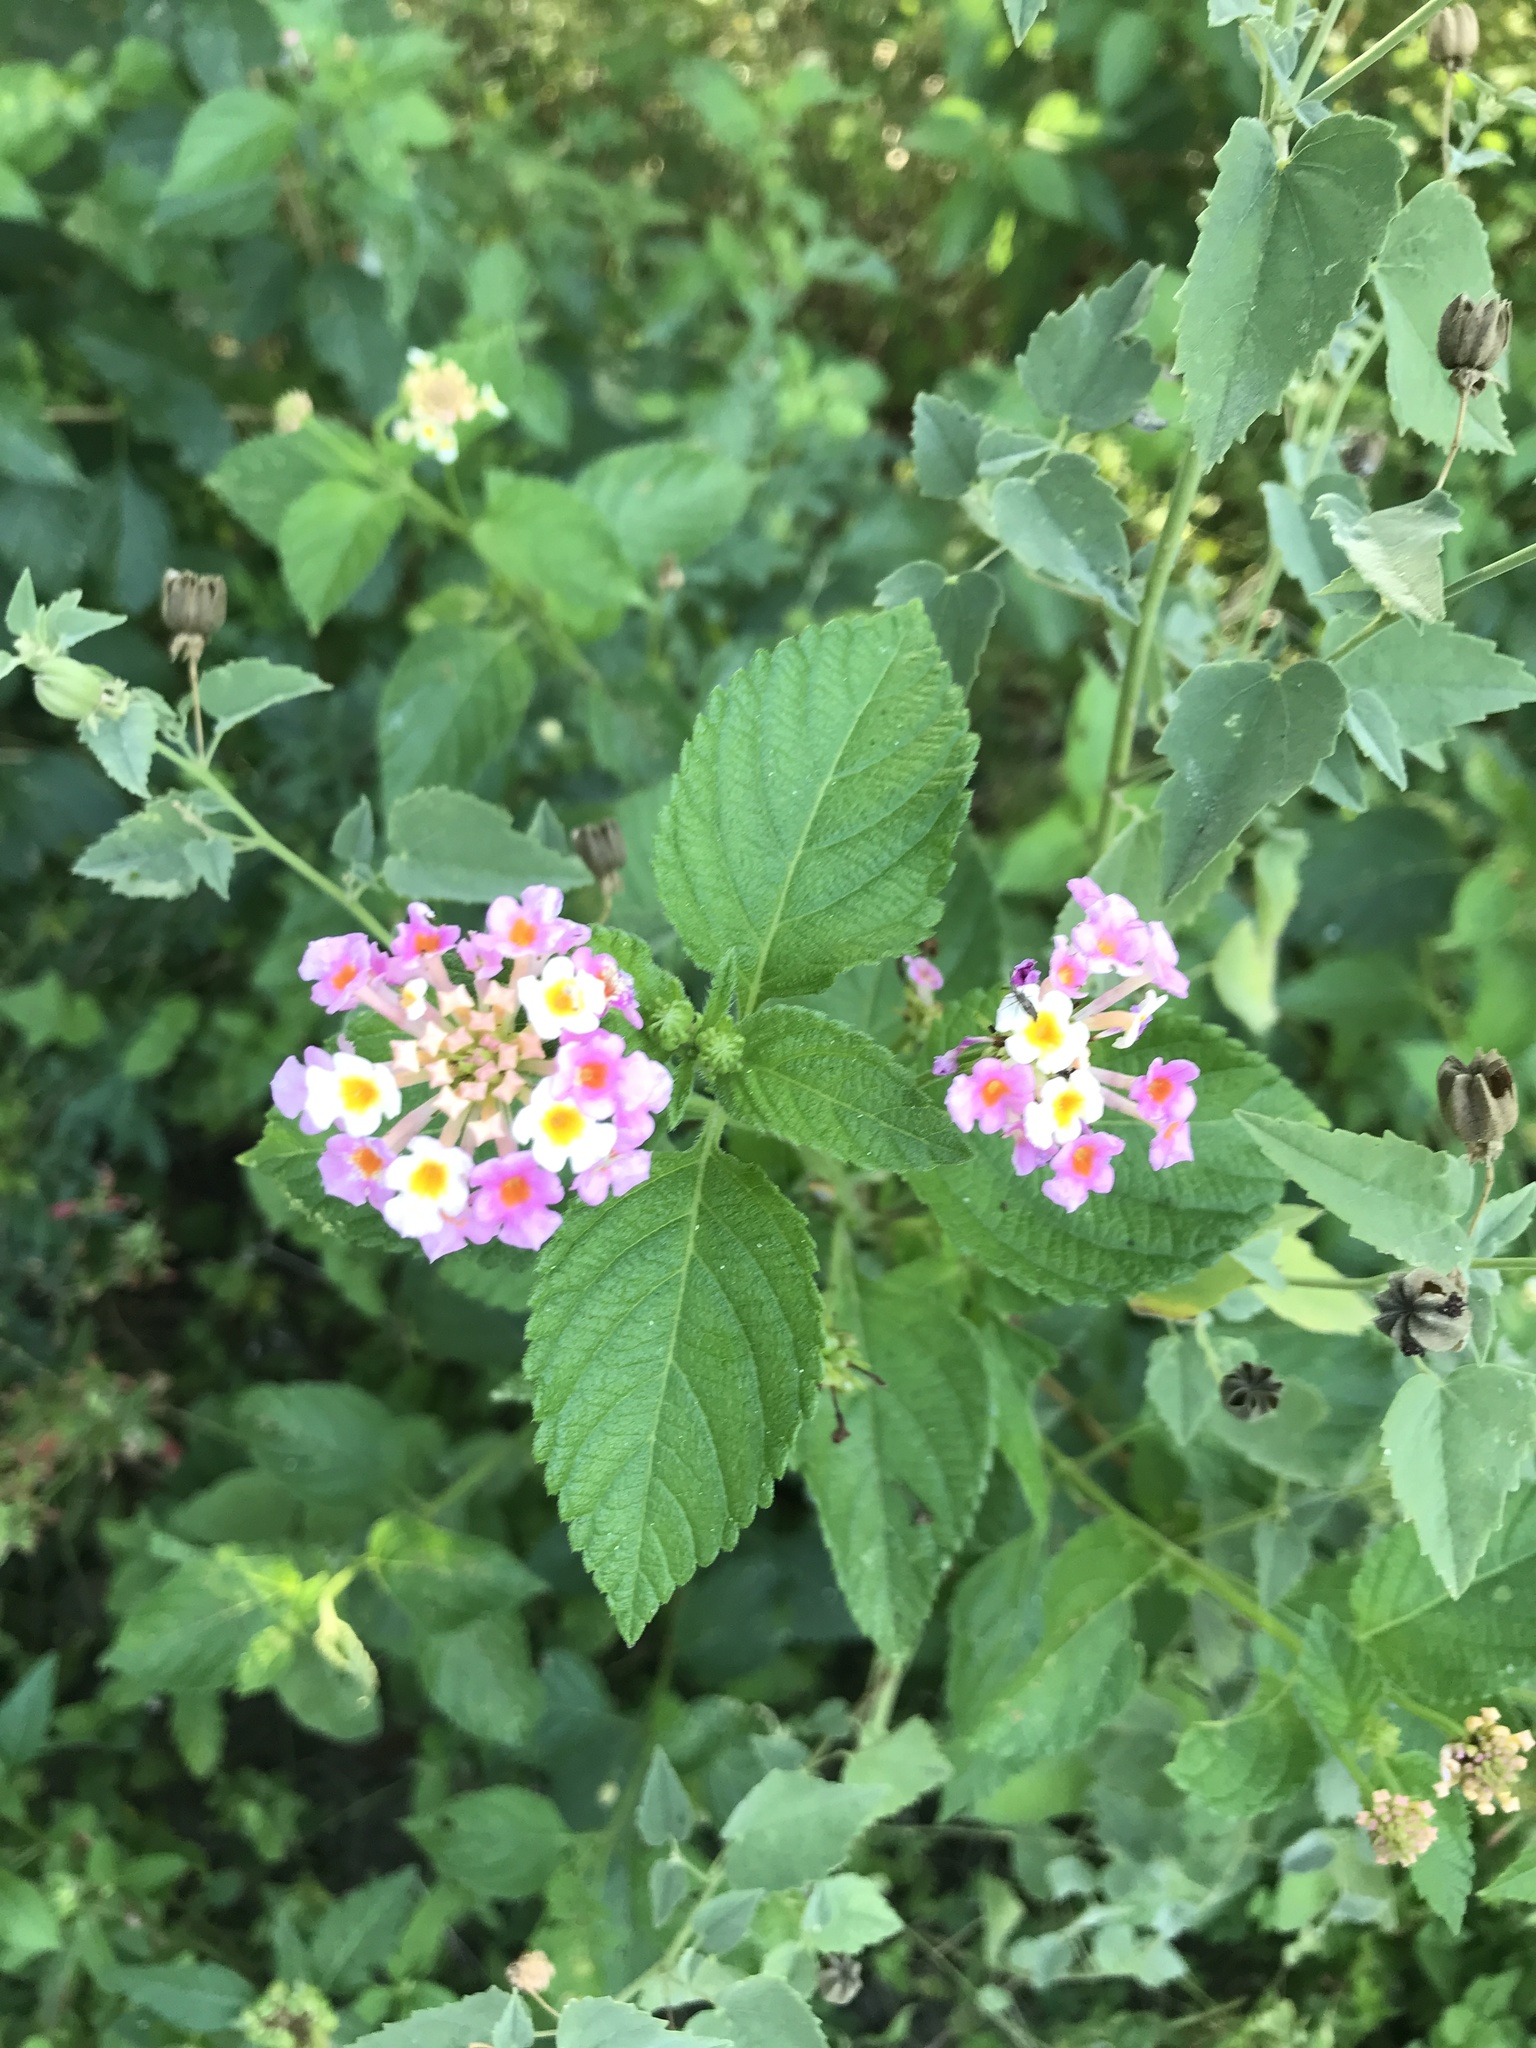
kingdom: Plantae
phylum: Tracheophyta
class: Magnoliopsida
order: Lamiales
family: Verbenaceae
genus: Lantana
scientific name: Lantana strigocamara
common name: Lantana
